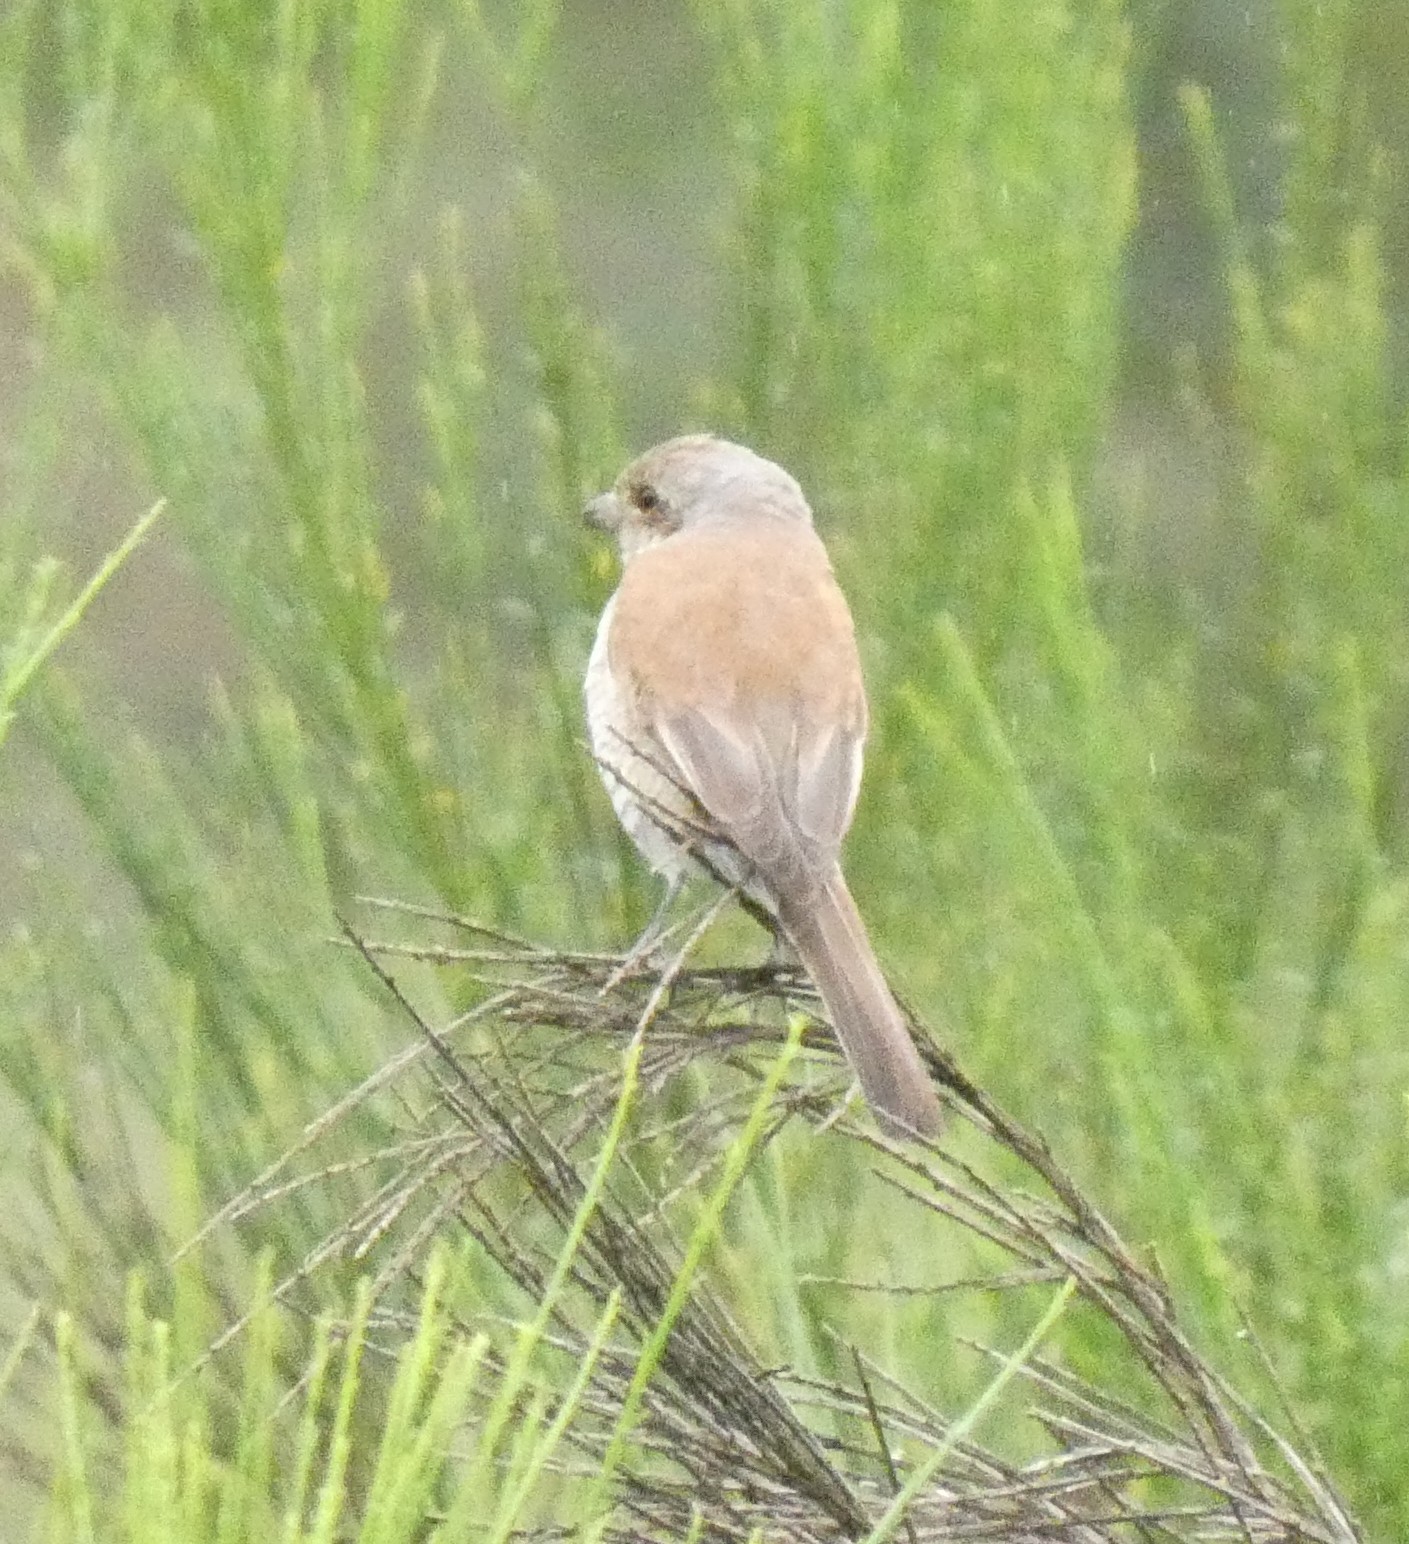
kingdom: Animalia
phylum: Chordata
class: Aves
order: Passeriformes
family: Laniidae
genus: Lanius
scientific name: Lanius collurio
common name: Red-backed shrike
